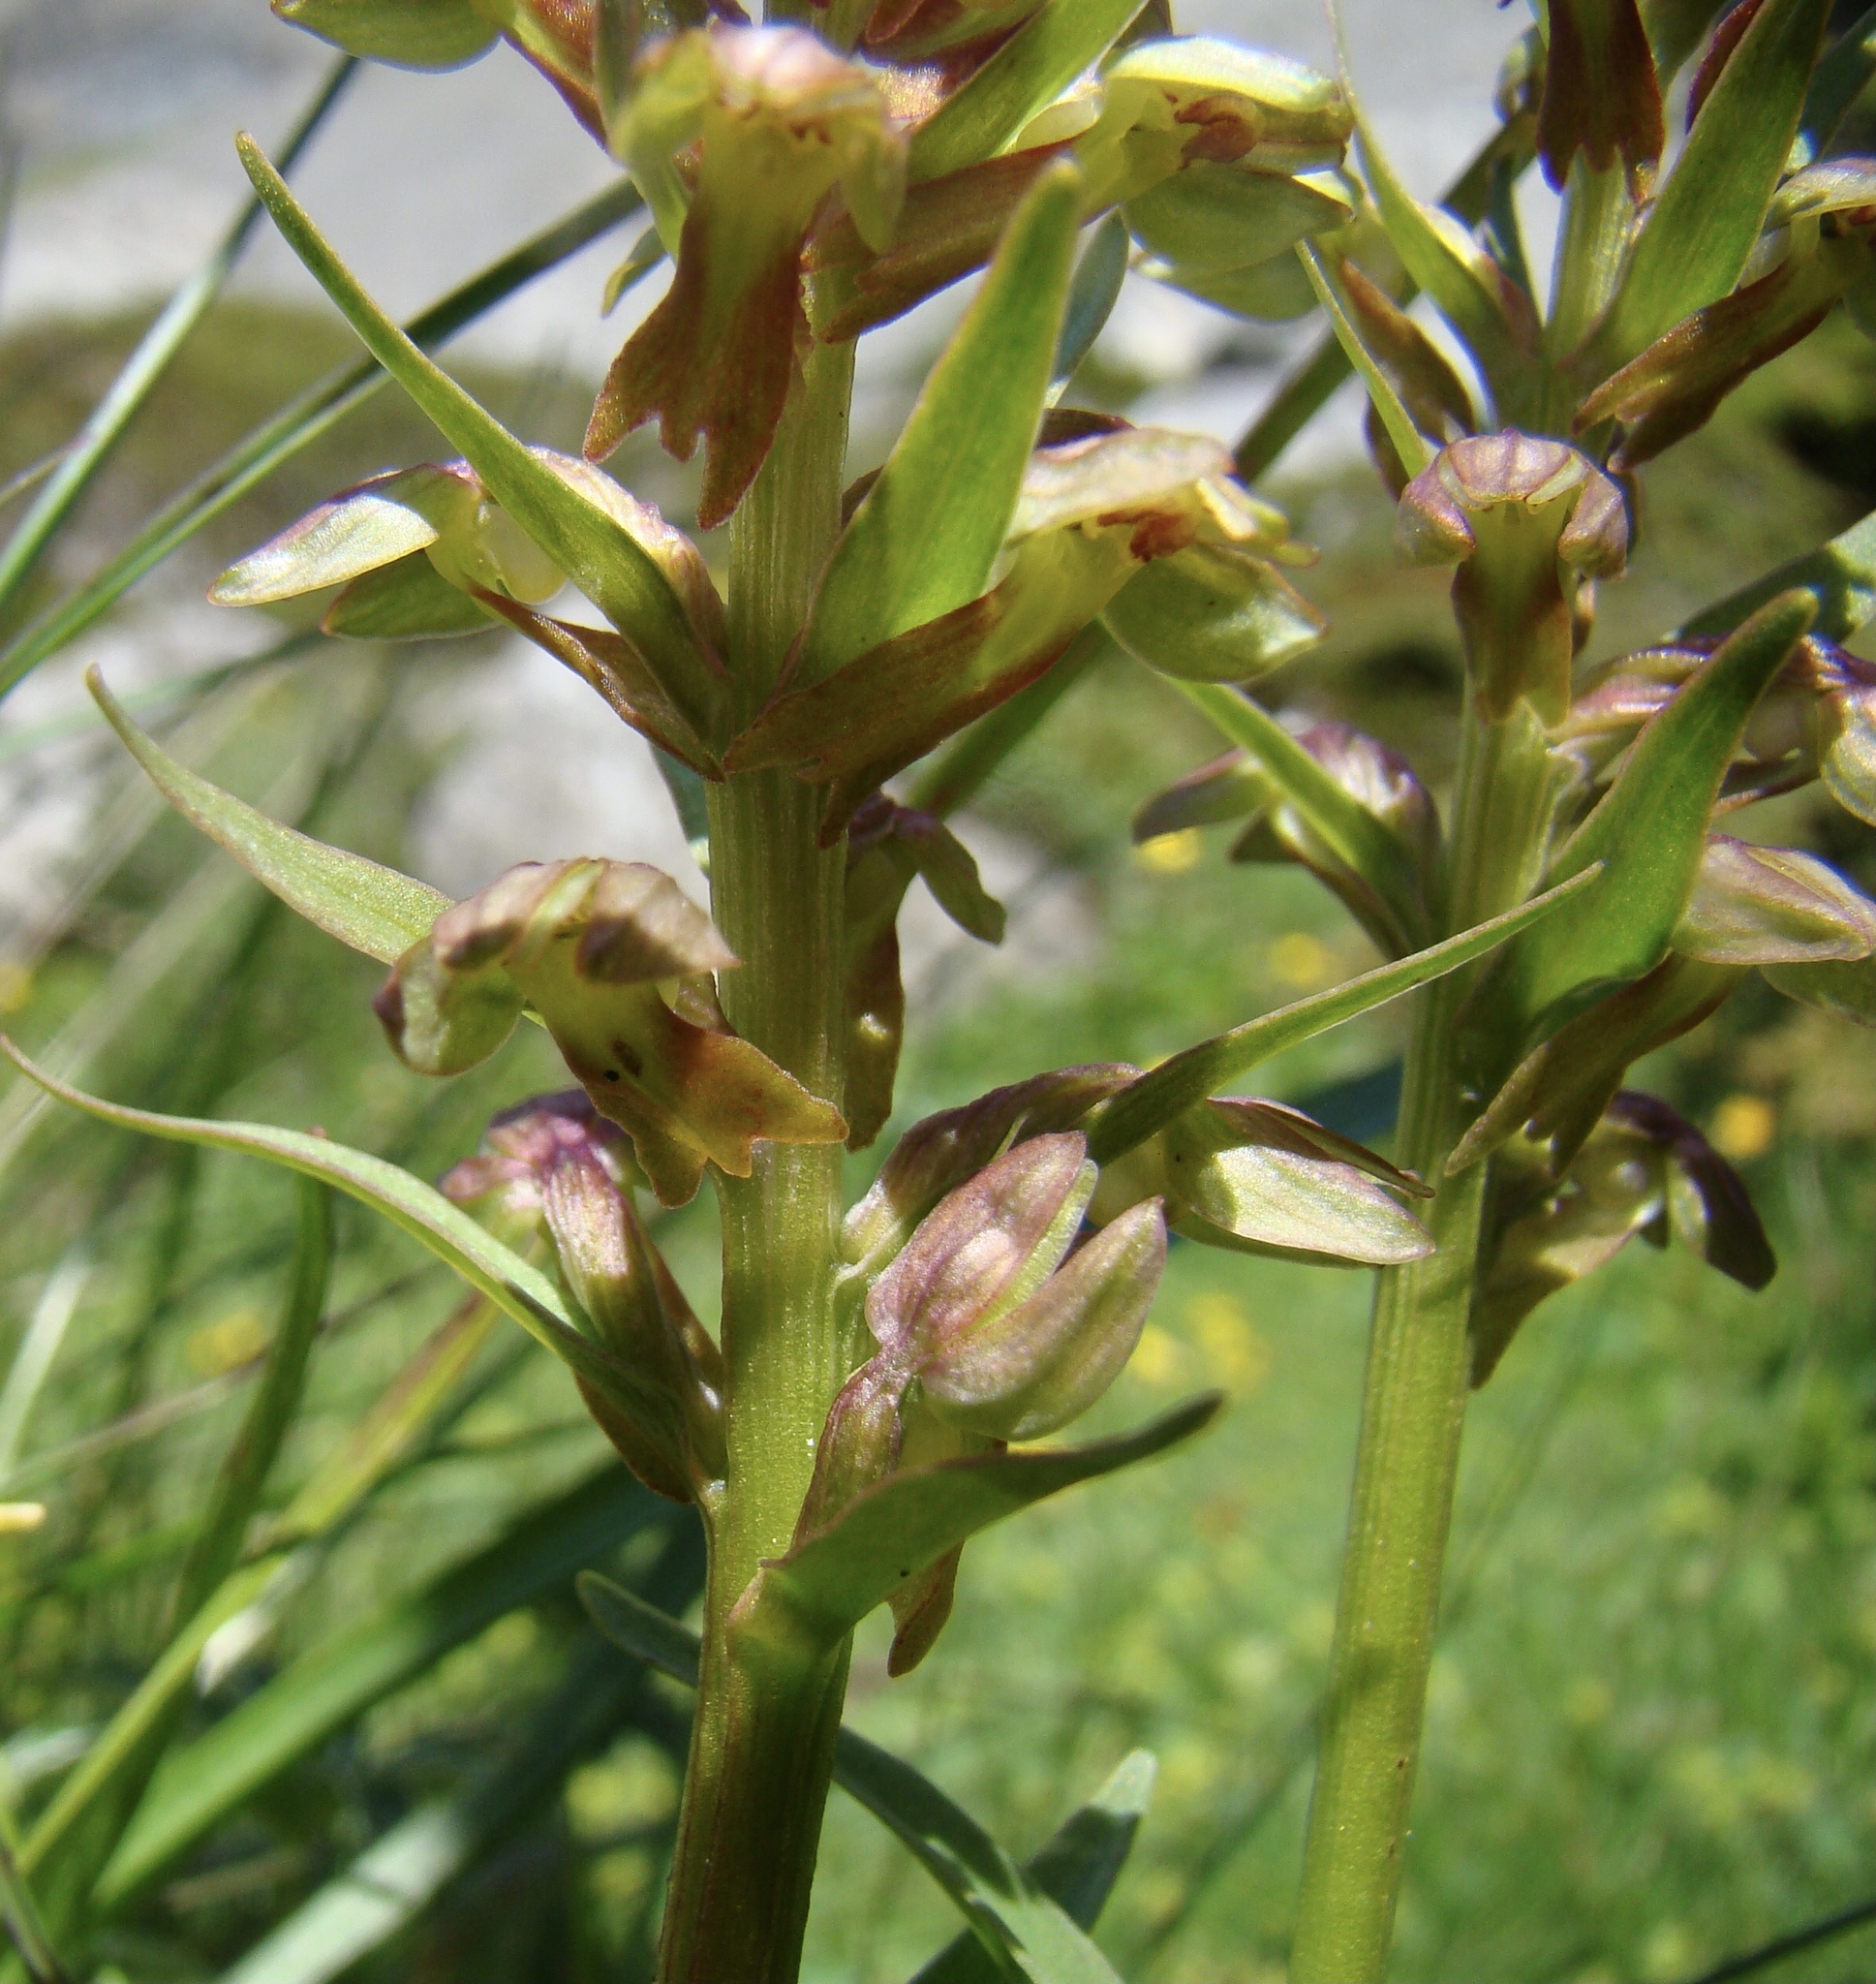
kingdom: Plantae
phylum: Tracheophyta
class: Liliopsida
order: Asparagales
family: Orchidaceae
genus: Dactylorhiza
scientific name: Dactylorhiza viridis
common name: Longbract frog orchid
